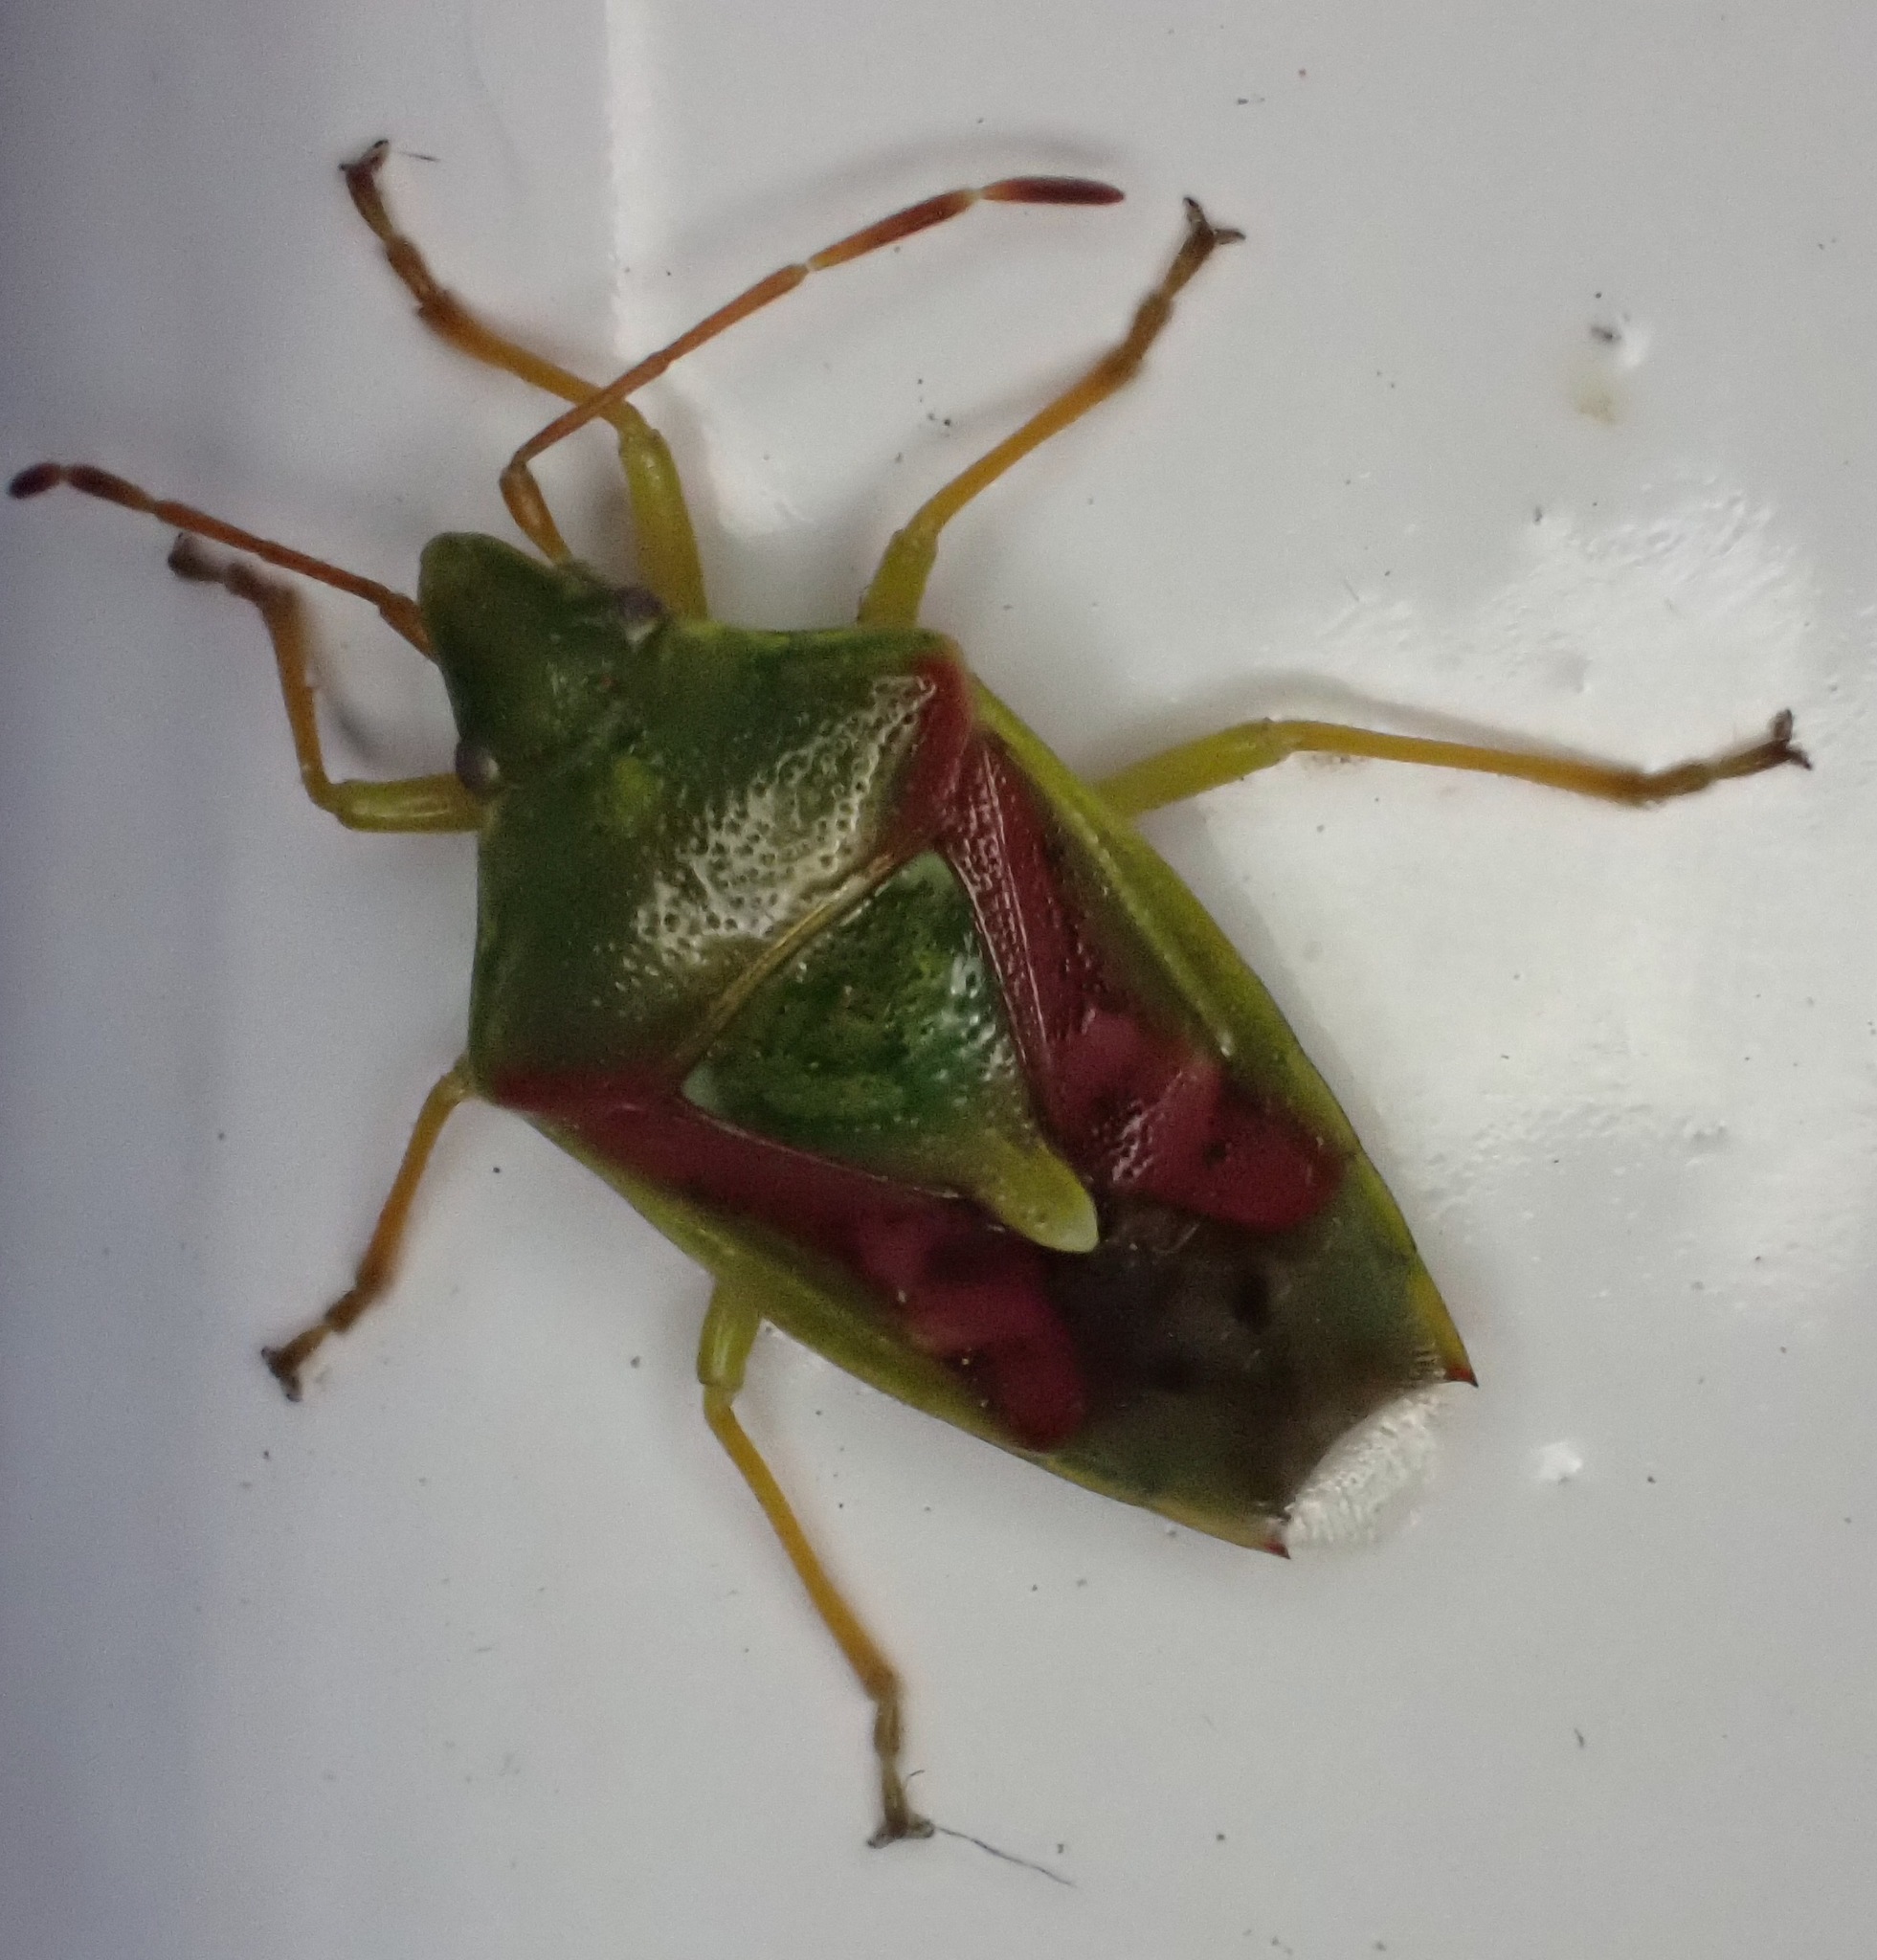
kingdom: Animalia
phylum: Arthropoda
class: Insecta
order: Hemiptera
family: Acanthosomatidae
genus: Cyphostethus
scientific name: Cyphostethus tristriatus
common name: Juniper shieldbug
